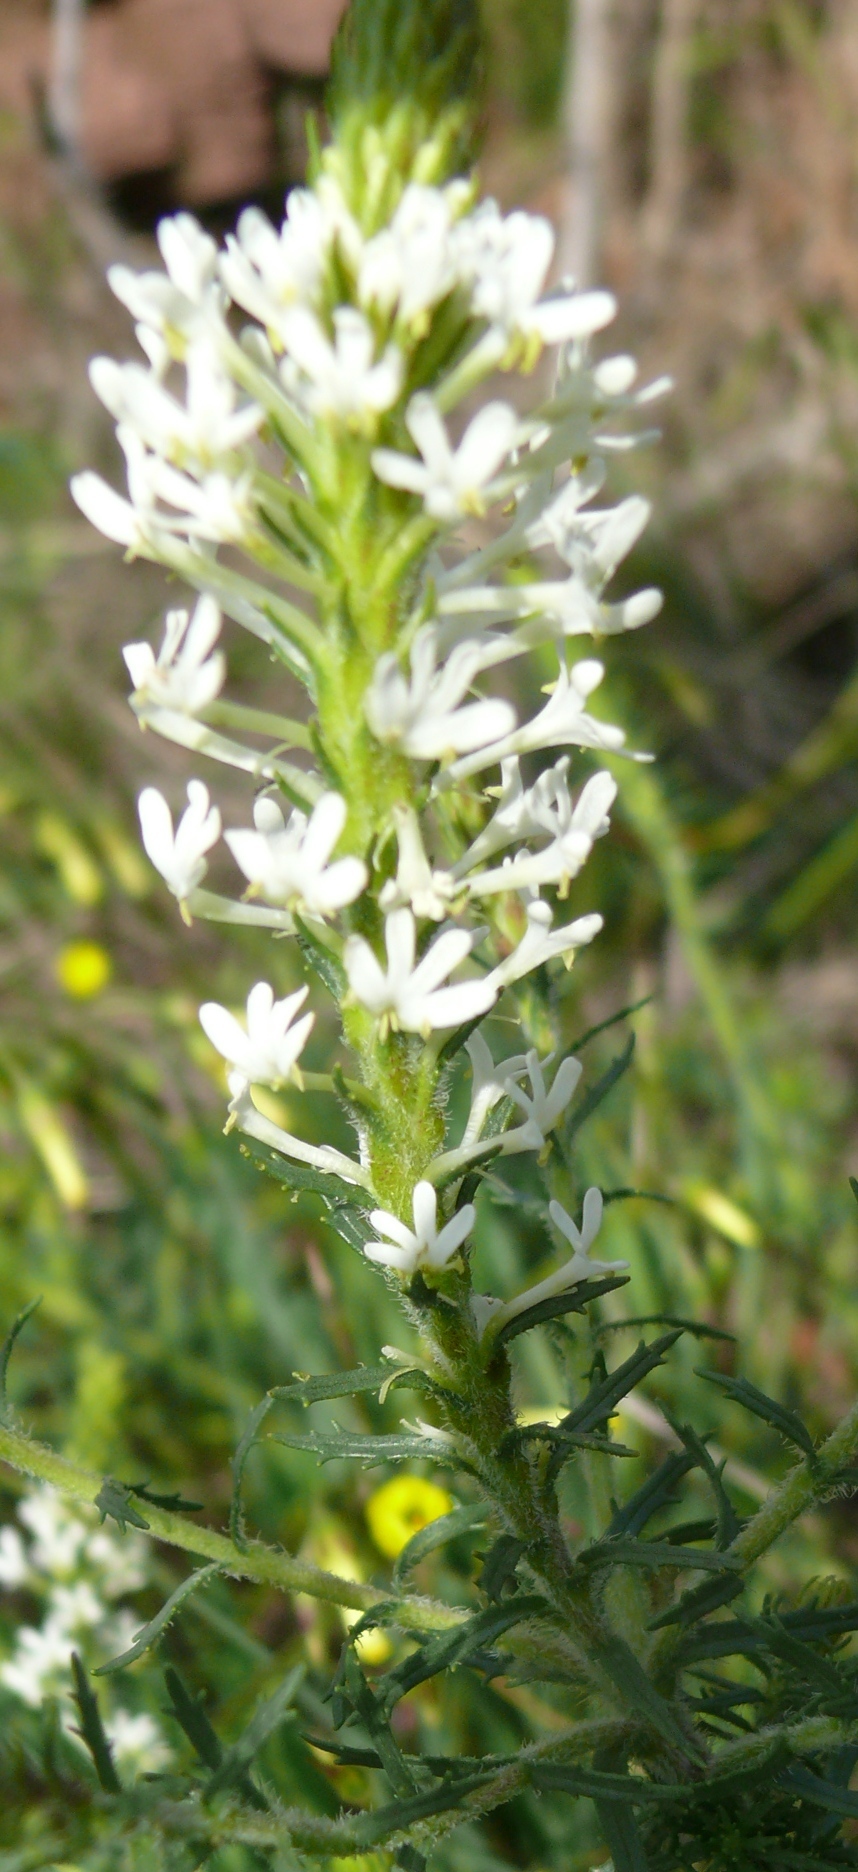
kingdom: Plantae
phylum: Tracheophyta
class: Magnoliopsida
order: Lamiales
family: Scrophulariaceae
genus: Dischisma
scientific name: Dischisma ciliatum
